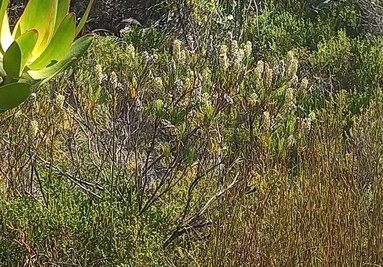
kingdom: Plantae
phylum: Tracheophyta
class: Magnoliopsida
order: Proteales
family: Proteaceae
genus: Paranomus
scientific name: Paranomus sceptrum-gustavianus
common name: King gustav's sceptre
